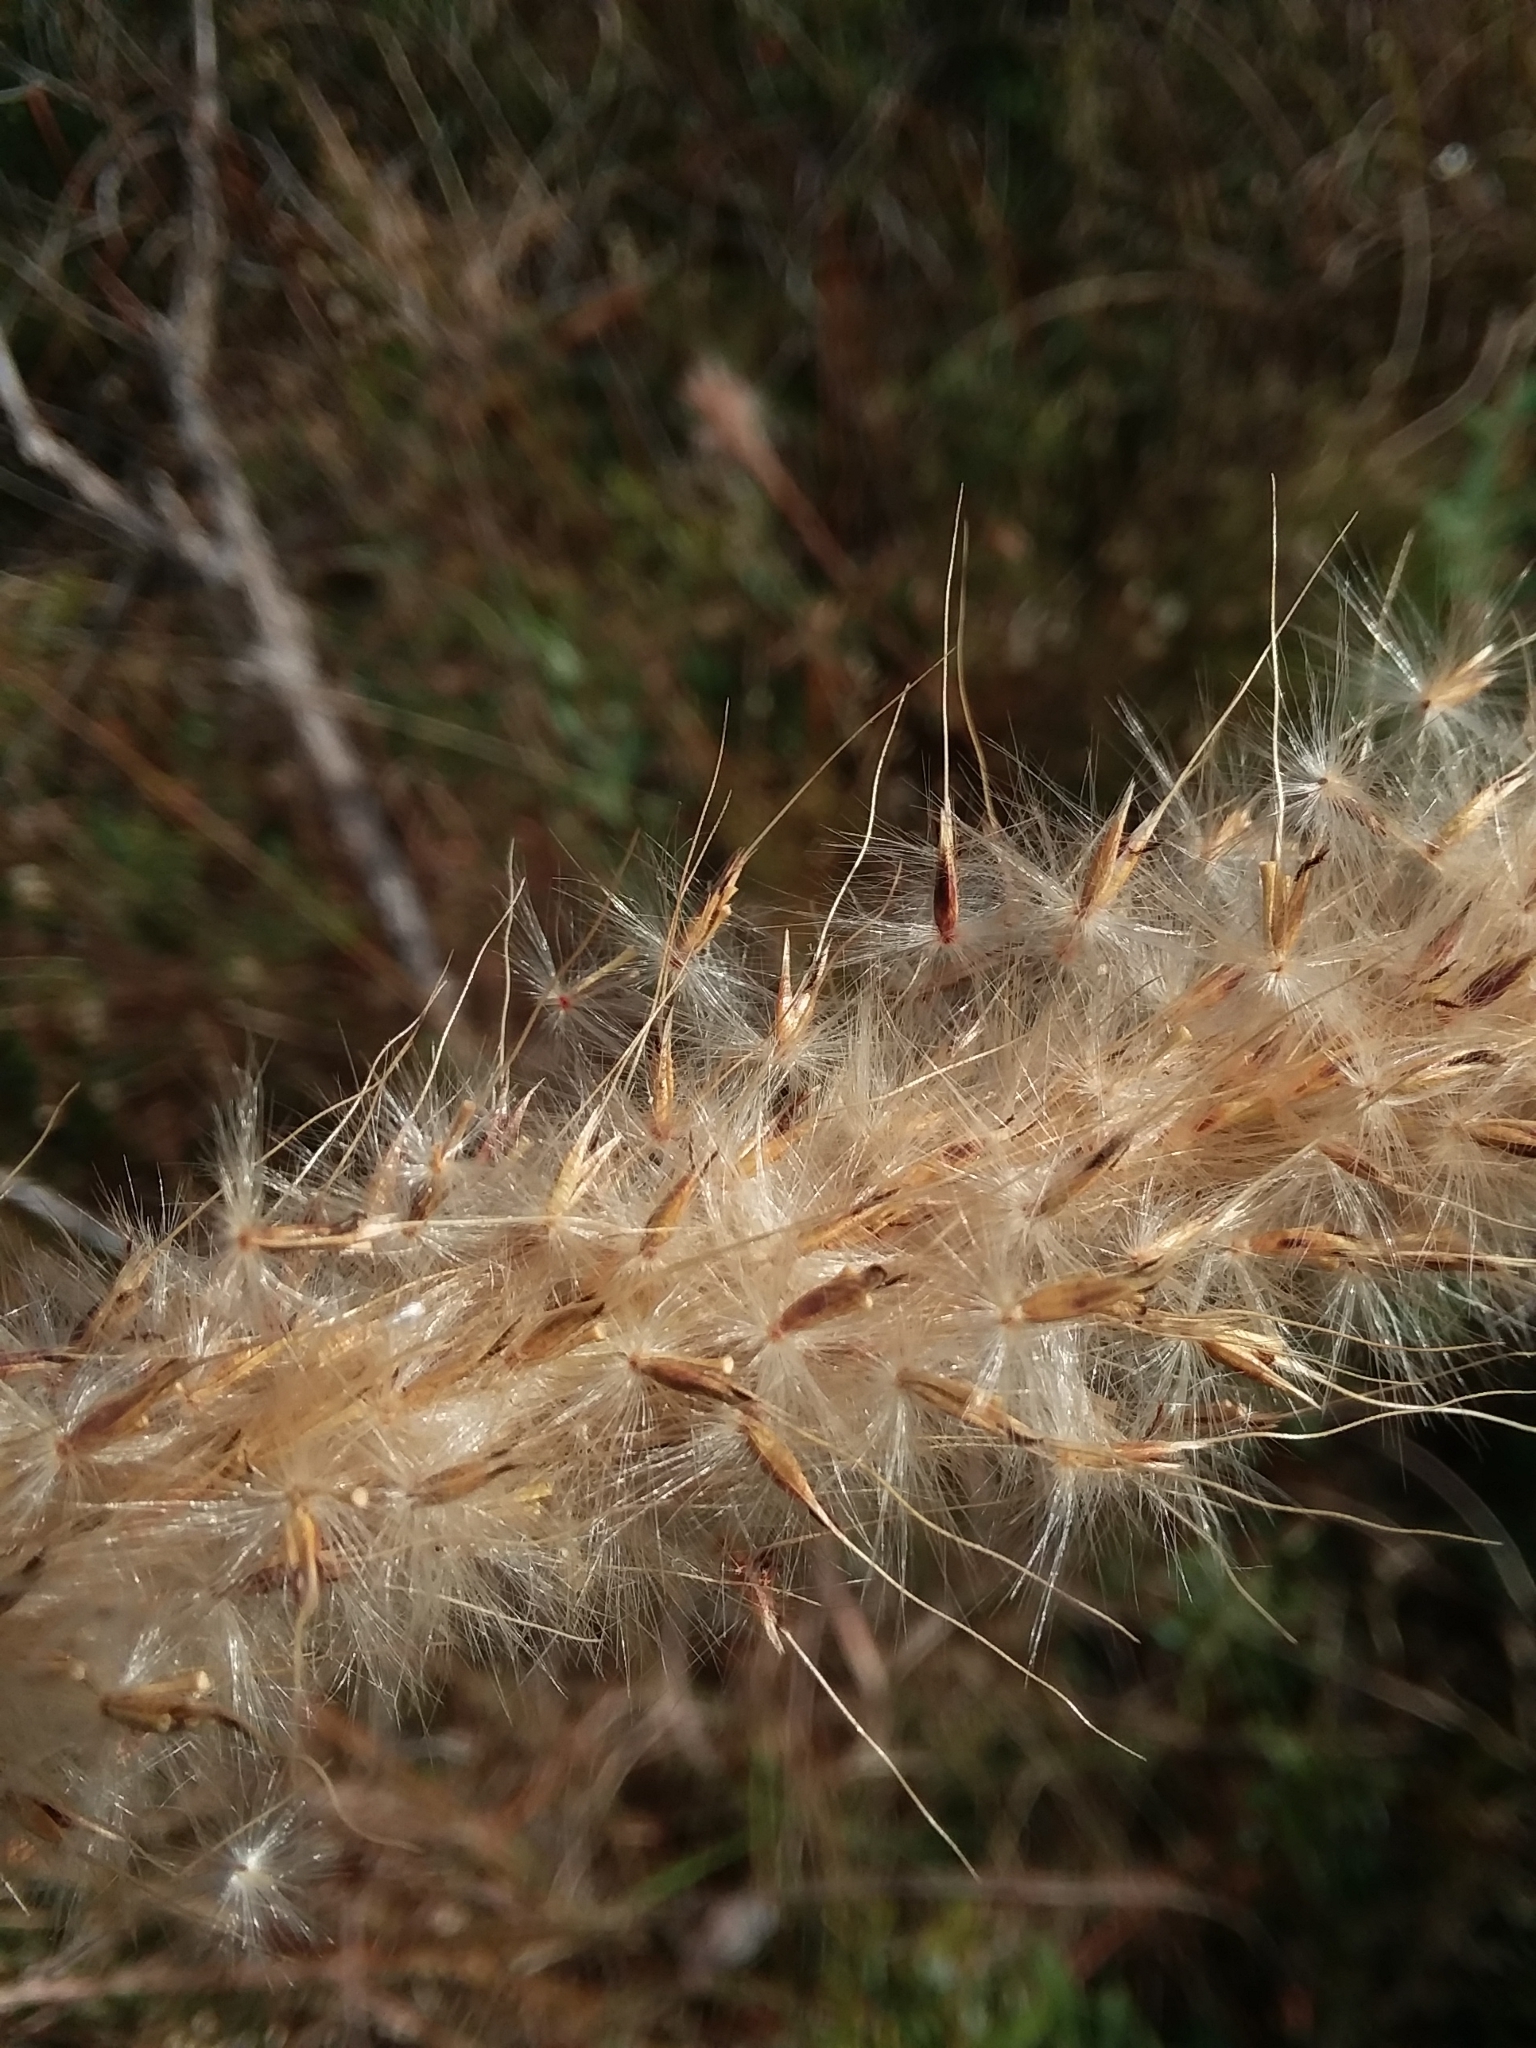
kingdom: Plantae
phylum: Tracheophyta
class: Liliopsida
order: Poales
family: Poaceae
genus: Erianthus
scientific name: Erianthus alopecuroides
